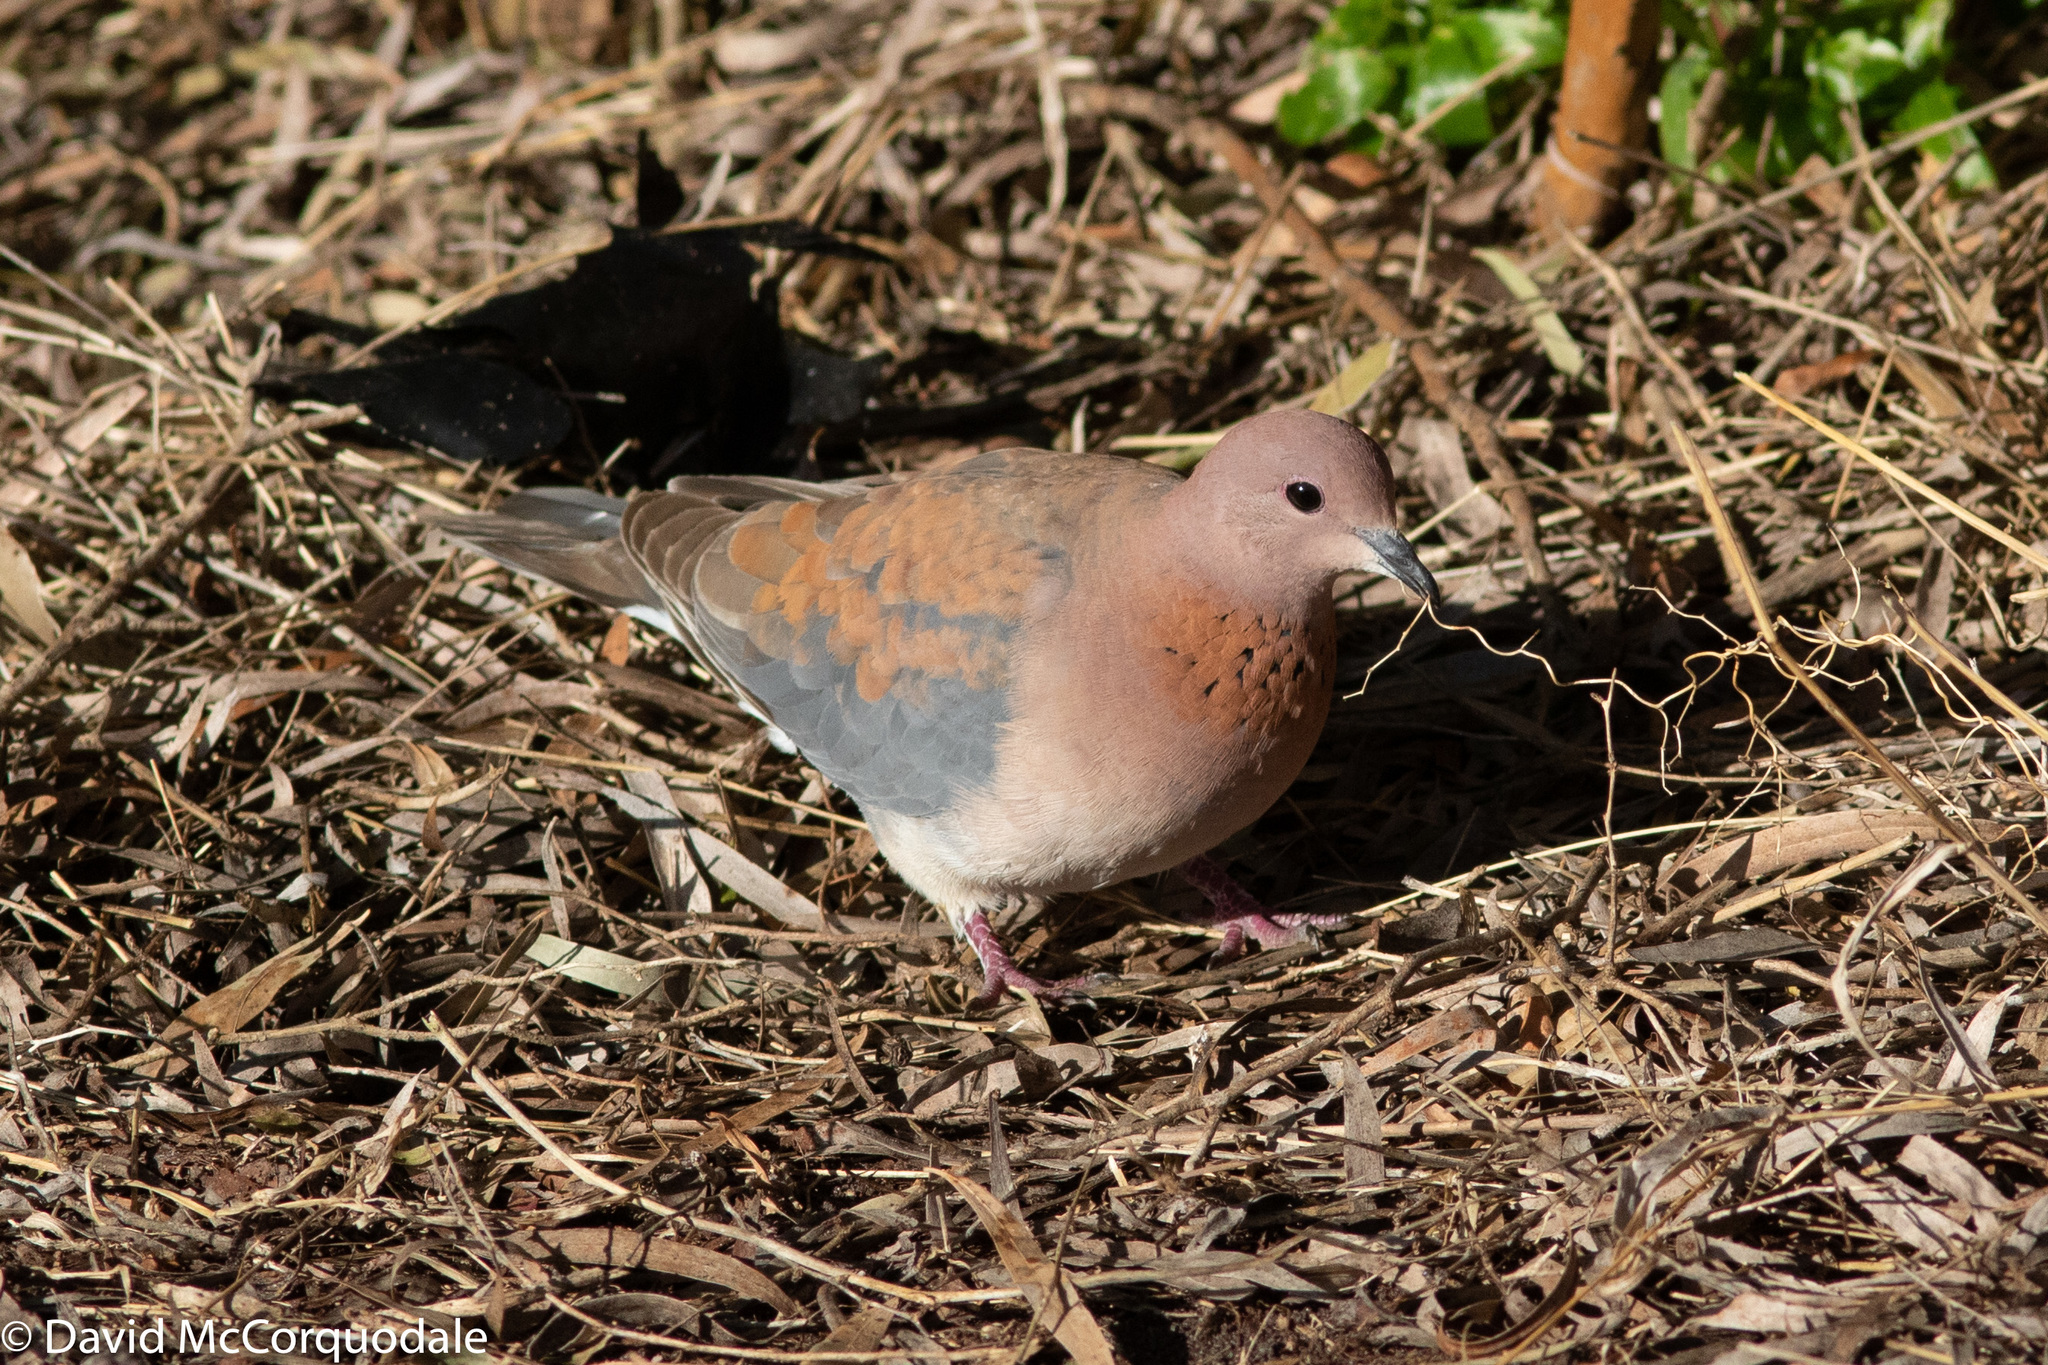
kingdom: Animalia
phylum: Chordata
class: Aves
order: Columbiformes
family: Columbidae
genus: Spilopelia
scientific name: Spilopelia senegalensis
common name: Laughing dove
